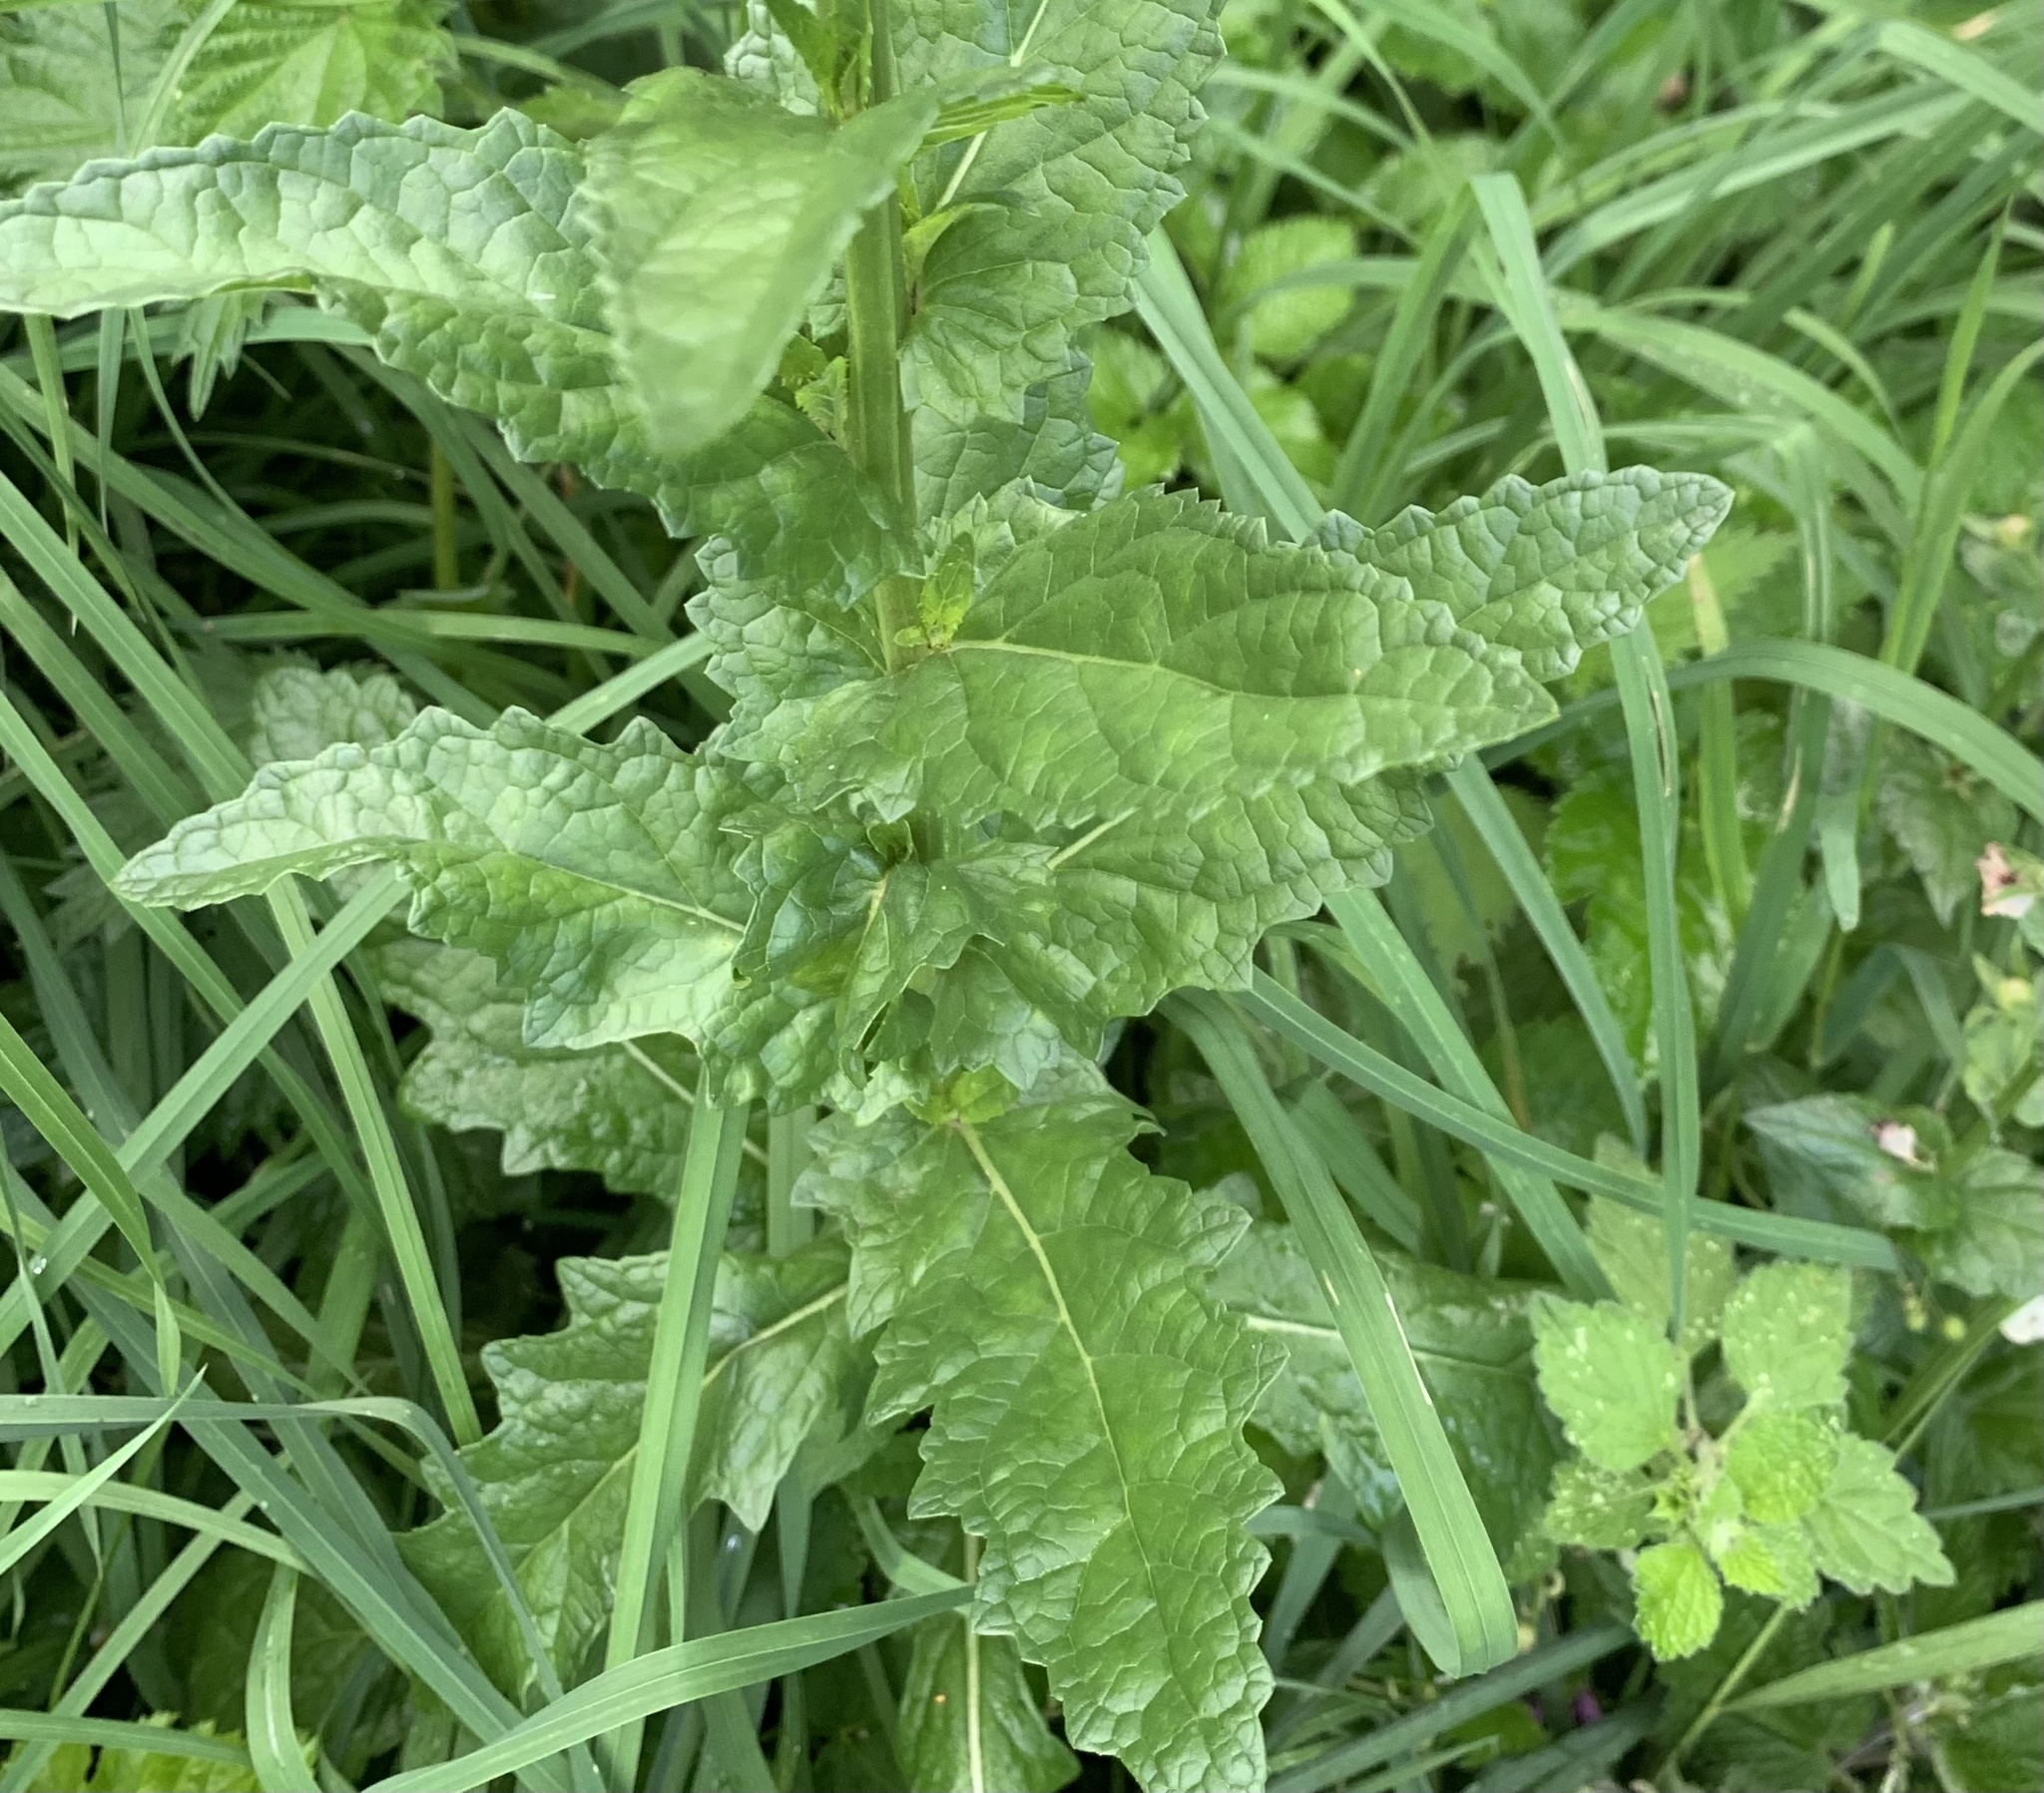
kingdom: Plantae
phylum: Tracheophyta
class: Magnoliopsida
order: Lamiales
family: Scrophulariaceae
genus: Verbascum
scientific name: Verbascum blattaria
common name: Moth mullein
